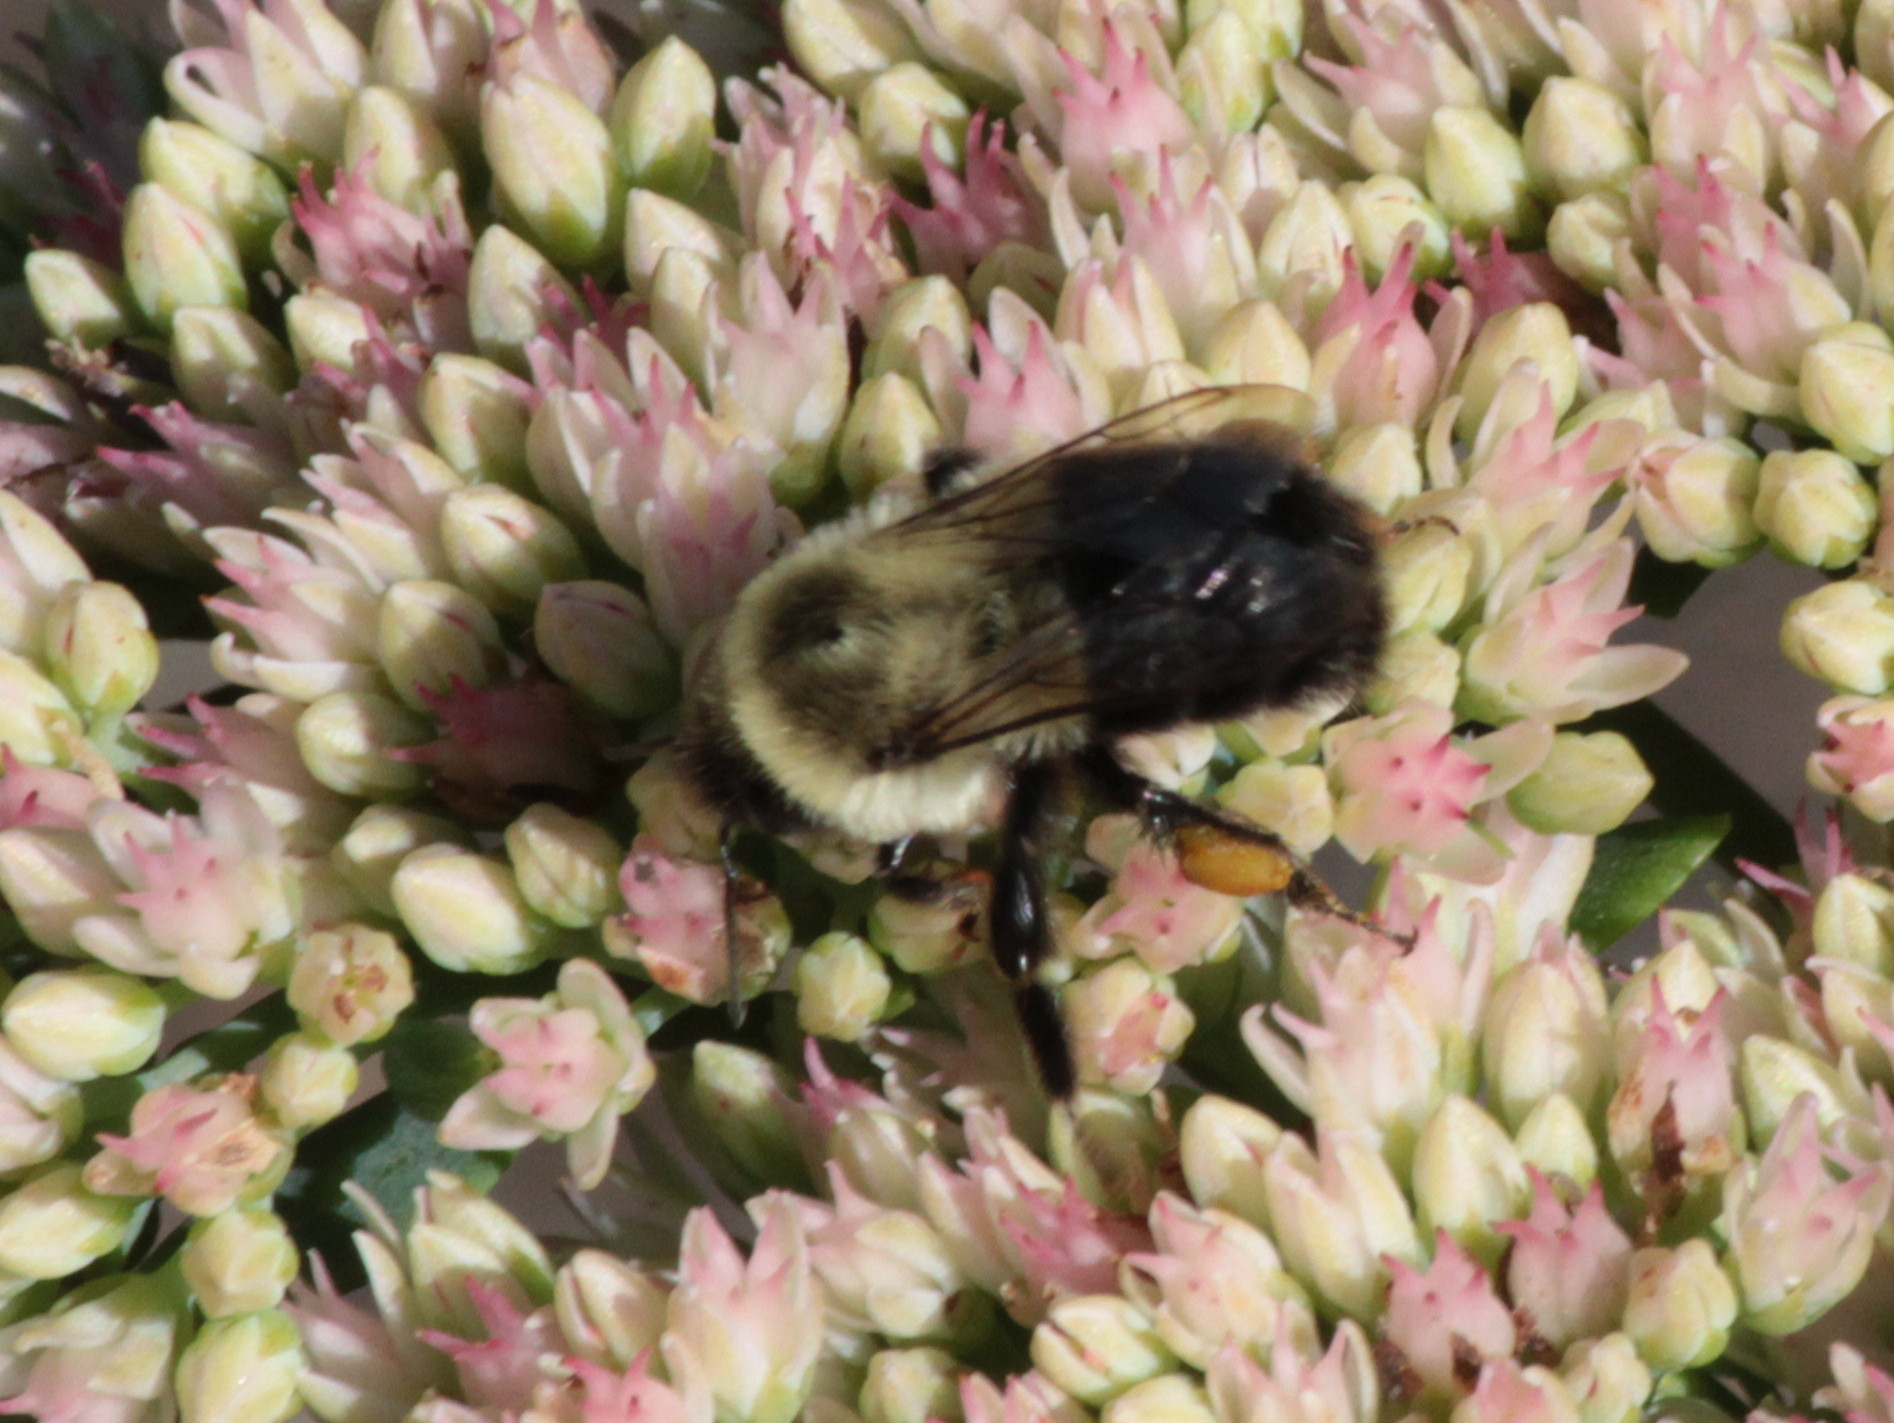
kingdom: Animalia
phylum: Arthropoda
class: Insecta
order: Hymenoptera
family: Apidae
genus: Bombus
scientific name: Bombus impatiens
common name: Common eastern bumble bee
